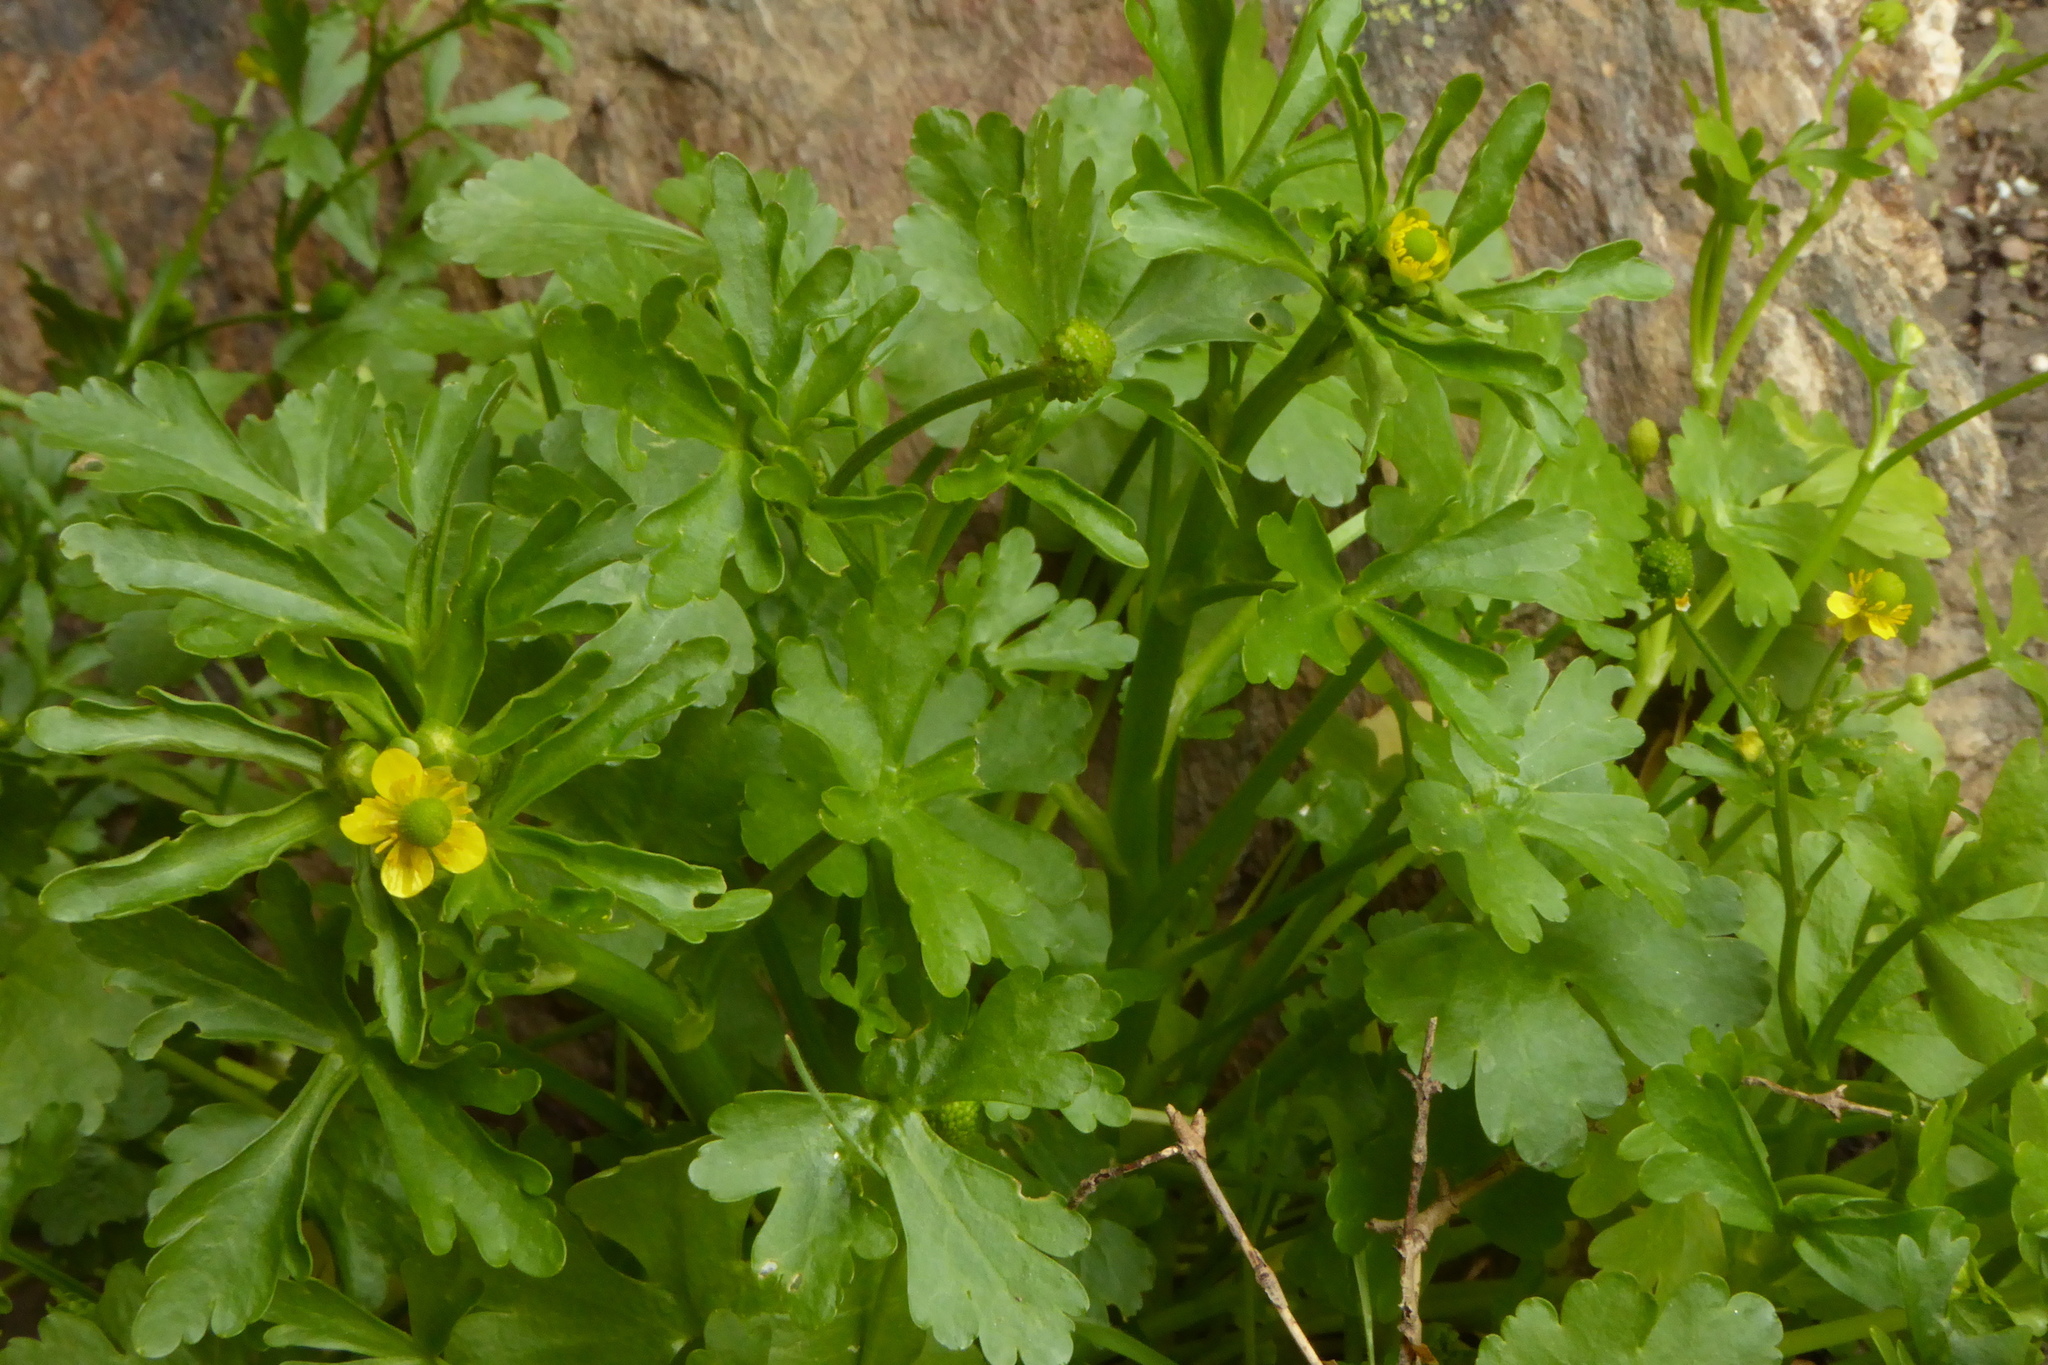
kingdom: Plantae
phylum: Tracheophyta
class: Magnoliopsida
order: Ranunculales
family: Ranunculaceae
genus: Ranunculus
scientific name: Ranunculus sceleratus
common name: Celery-leaved buttercup
